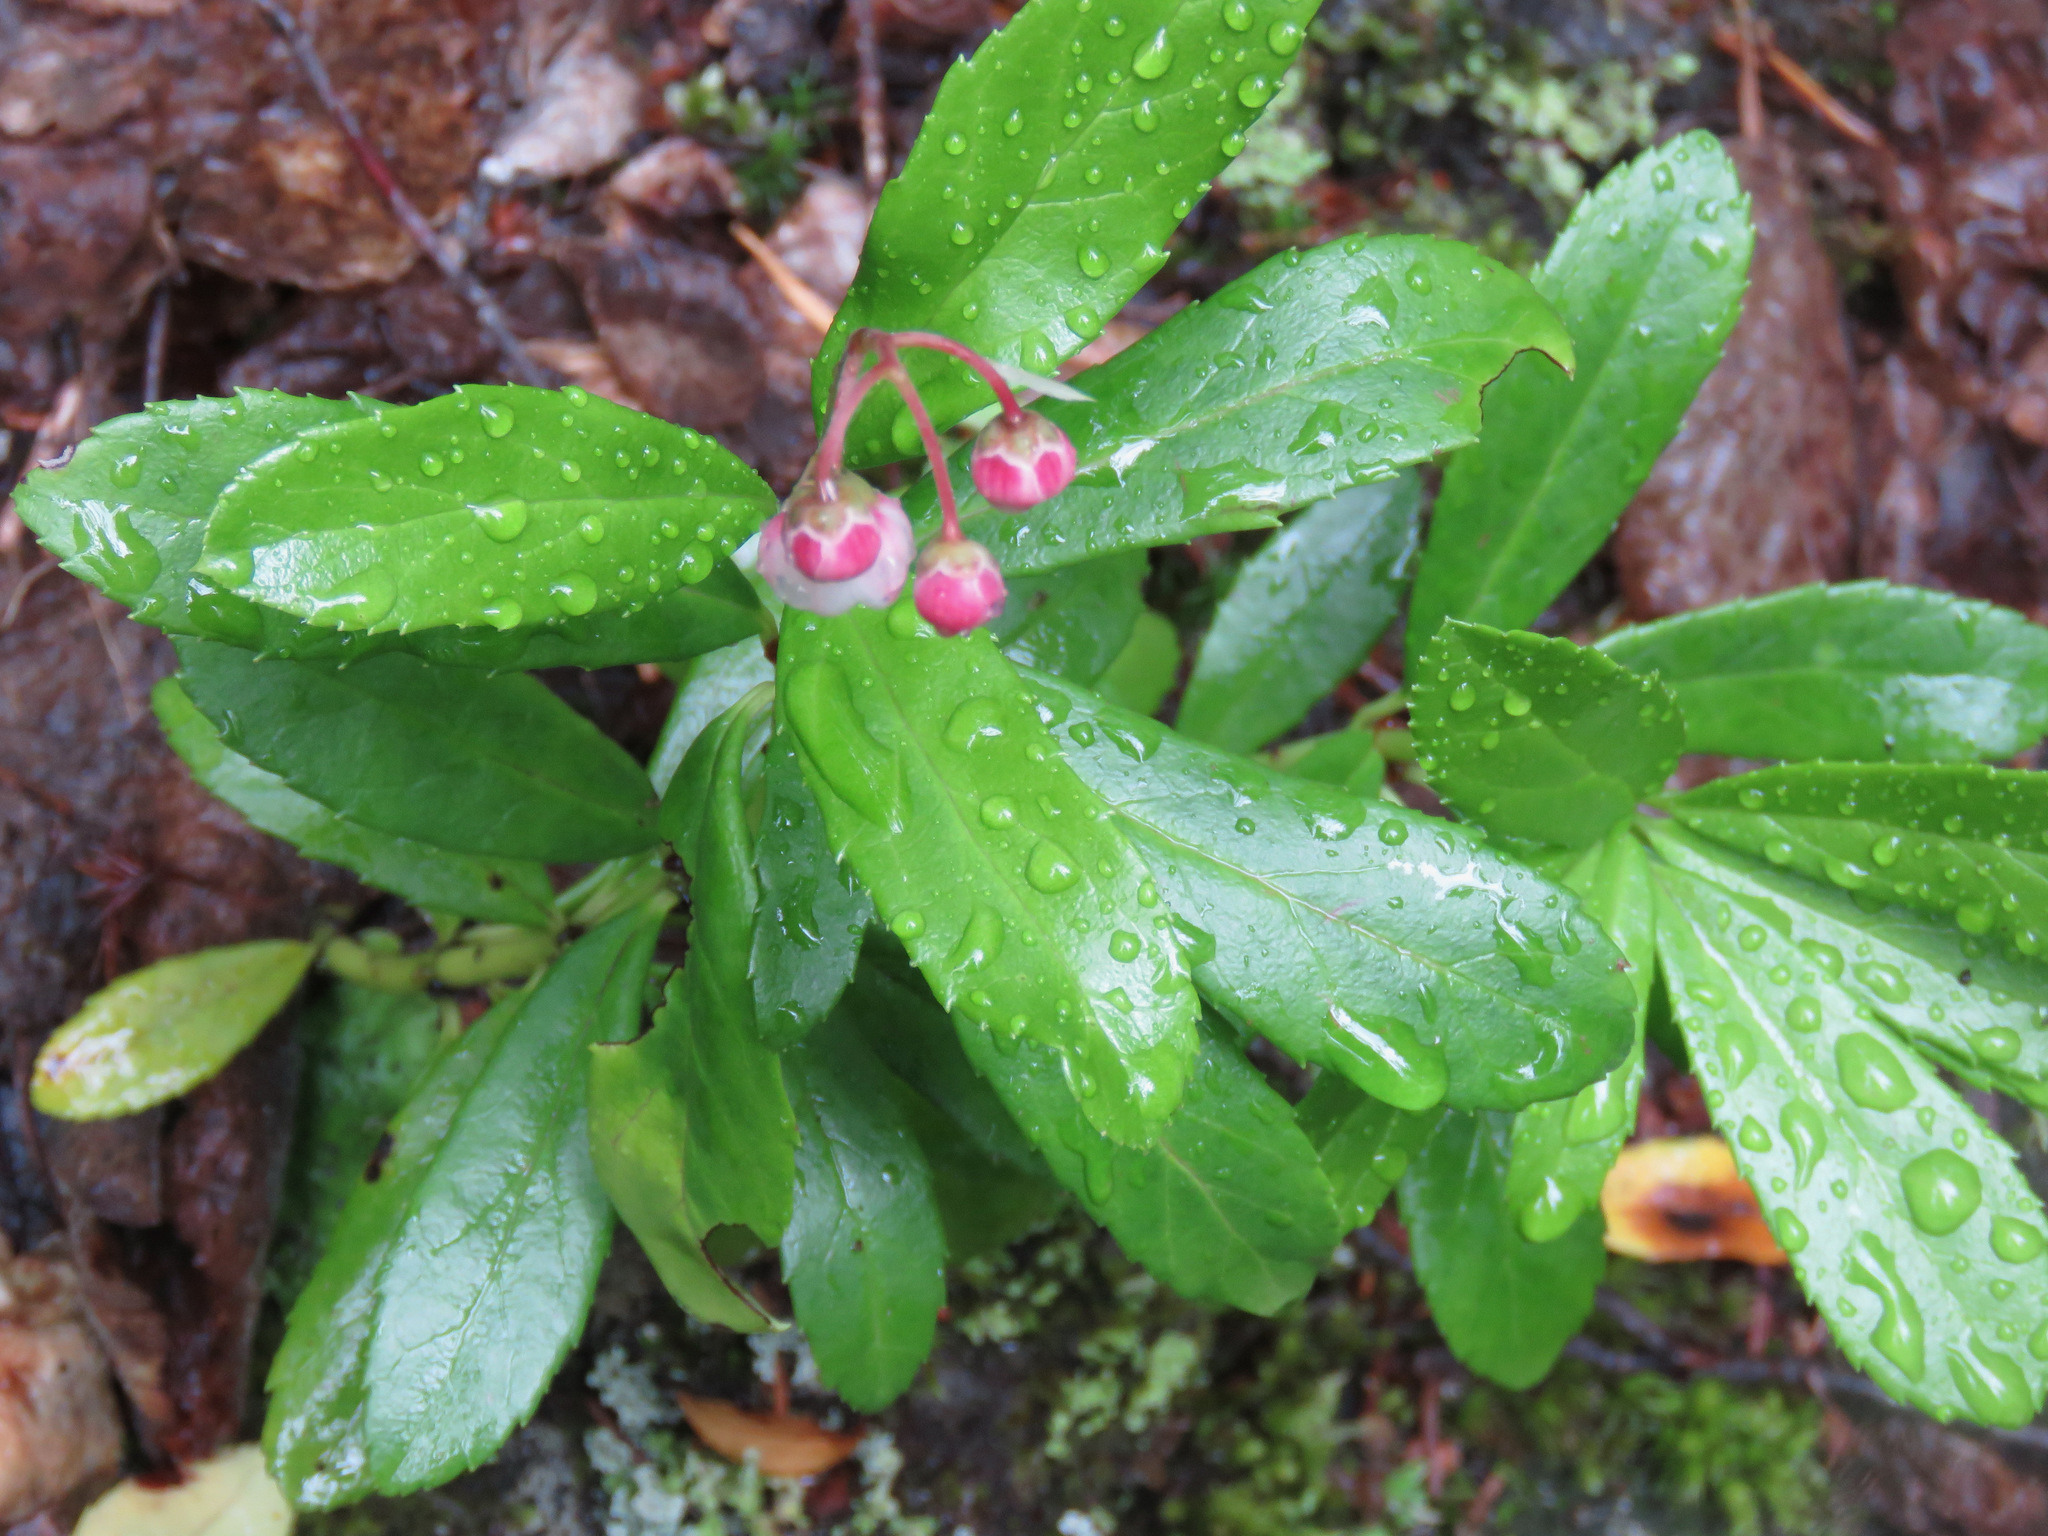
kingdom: Plantae
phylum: Tracheophyta
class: Magnoliopsida
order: Ericales
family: Ericaceae
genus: Chimaphila
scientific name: Chimaphila umbellata
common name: Pipsissewa
